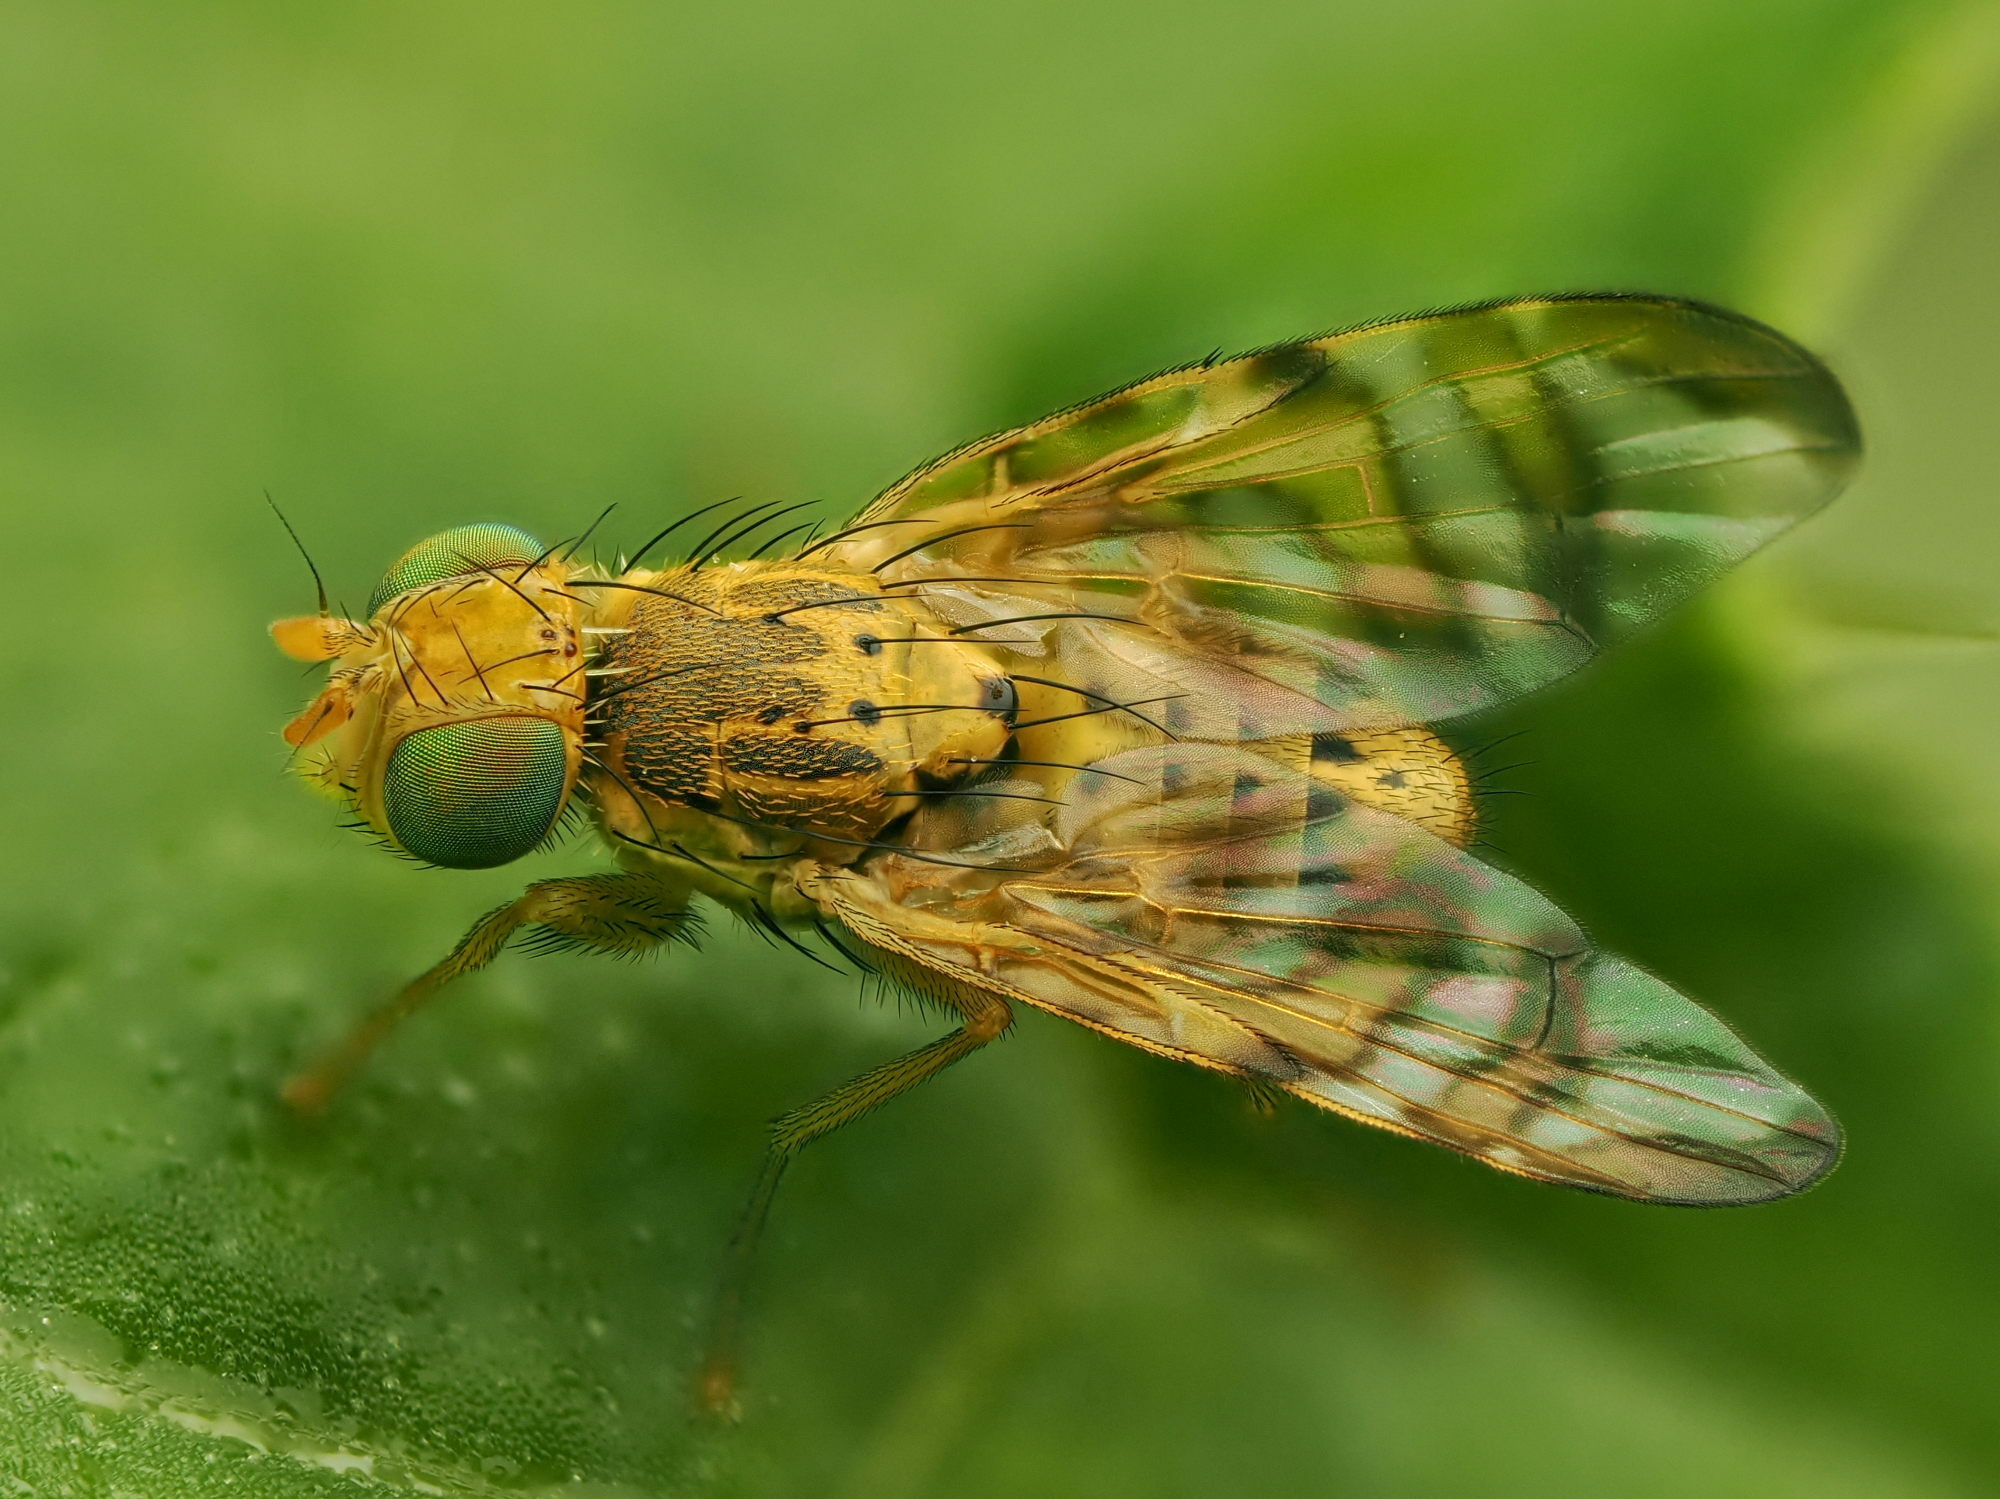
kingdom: Animalia
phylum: Arthropoda
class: Insecta
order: Diptera
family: Tephritidae
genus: Chaetostomella
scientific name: Chaetostomella cylindrica
